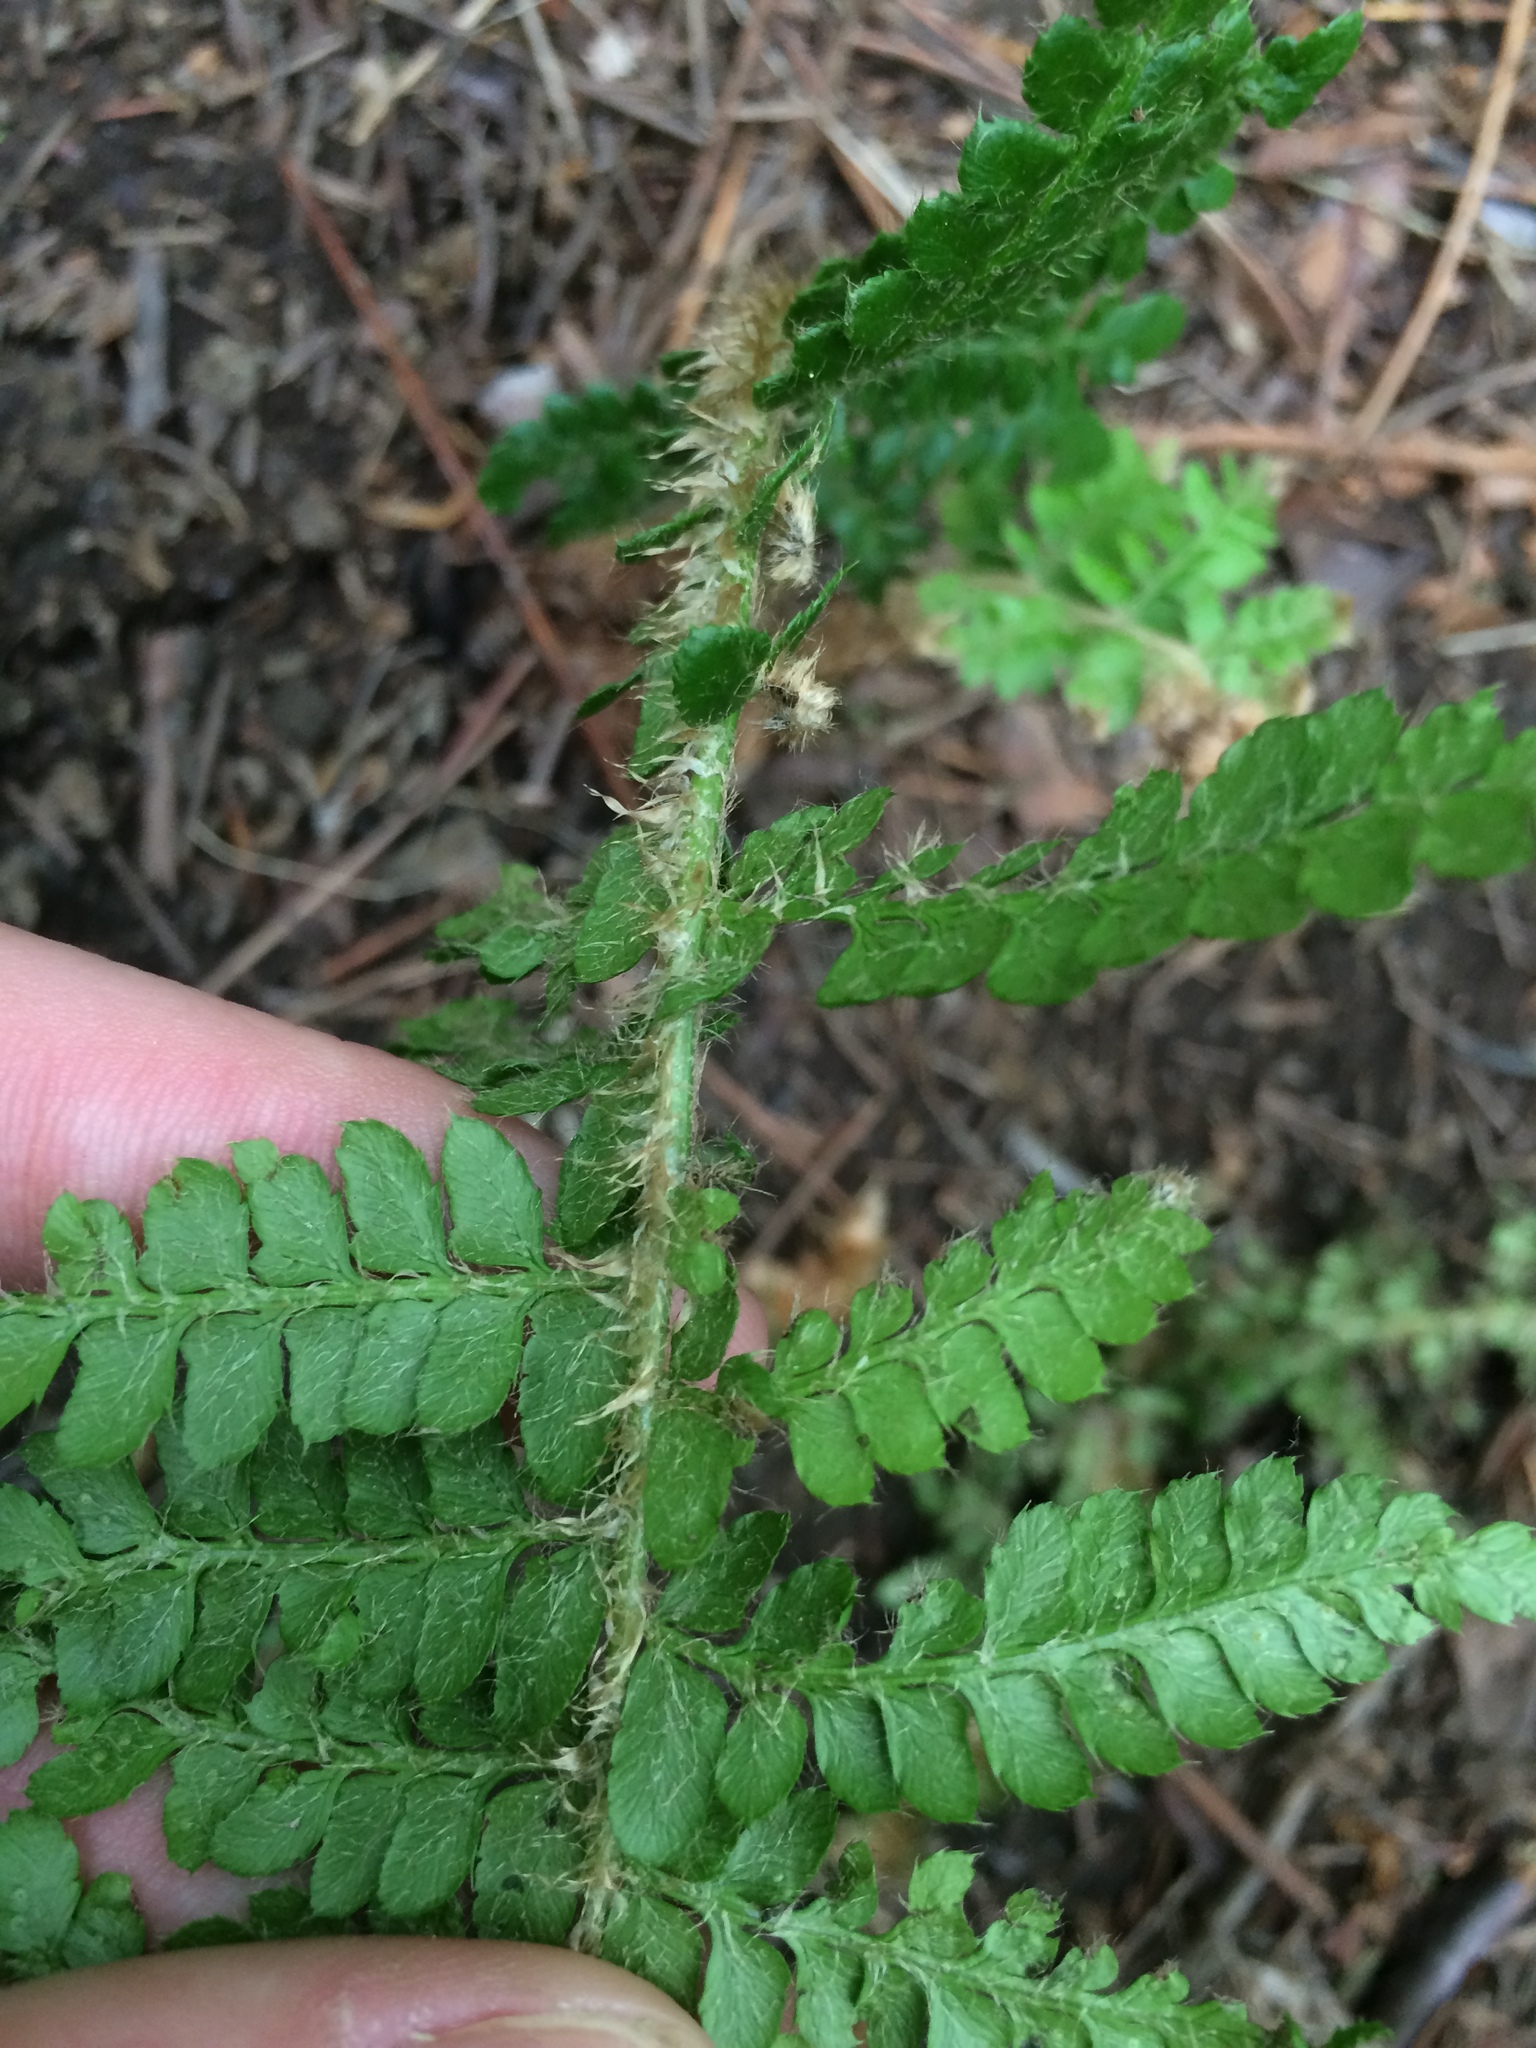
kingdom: Plantae
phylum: Tracheophyta
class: Polypodiopsida
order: Polypodiales
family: Dryopteridaceae
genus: Polystichum
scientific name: Polystichum braunii
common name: Braun's holly fern
